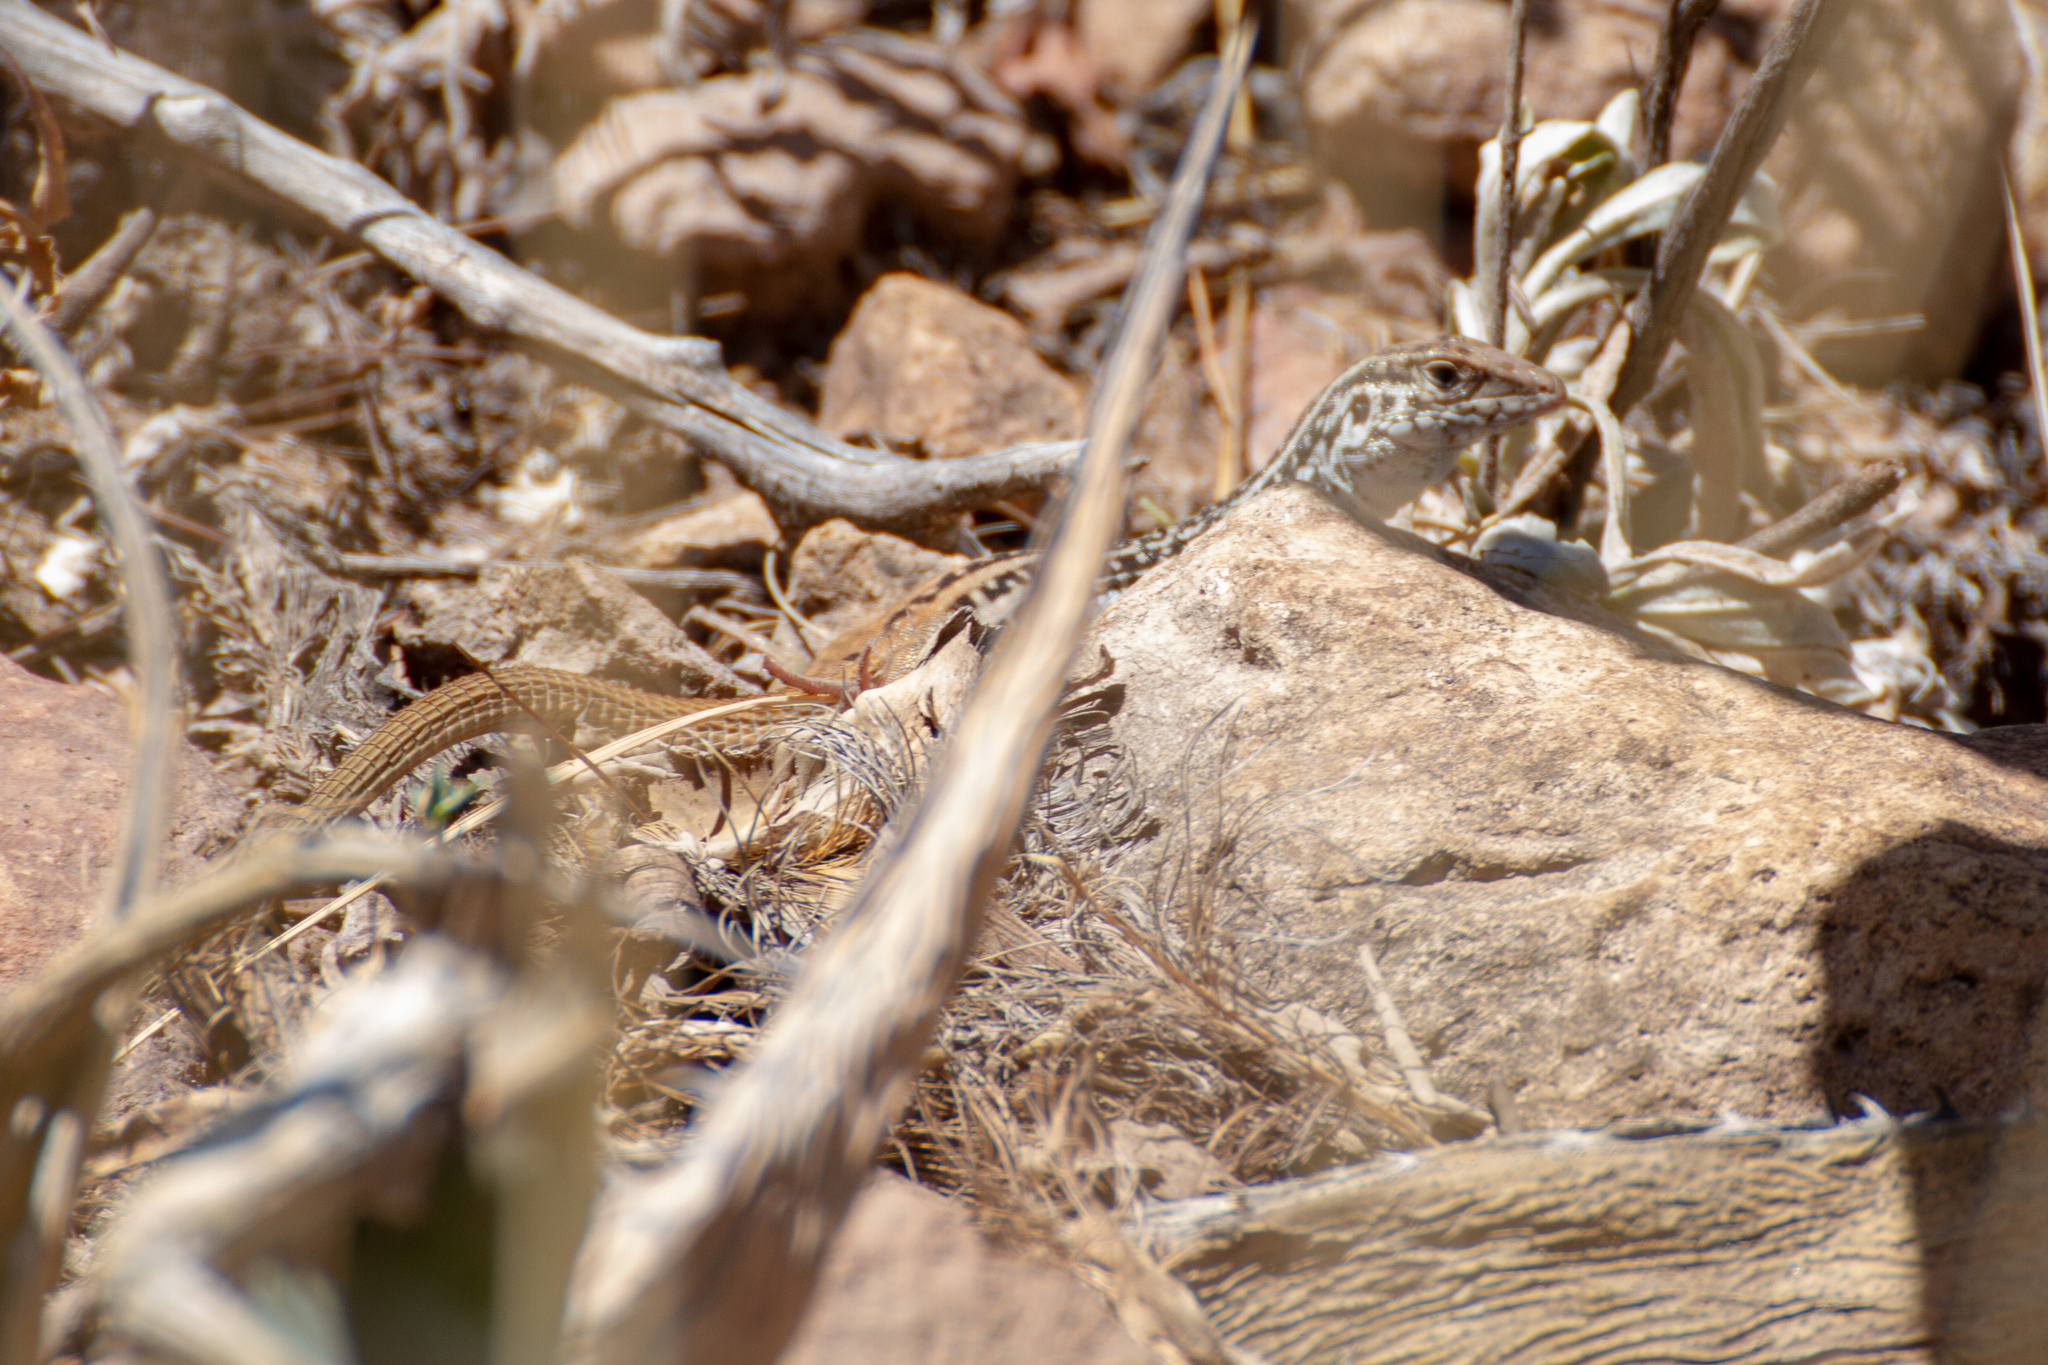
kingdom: Animalia
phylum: Chordata
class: Squamata
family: Teiidae
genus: Aspidoscelis
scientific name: Aspidoscelis scalaris
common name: Rusty-rumped whiptail
